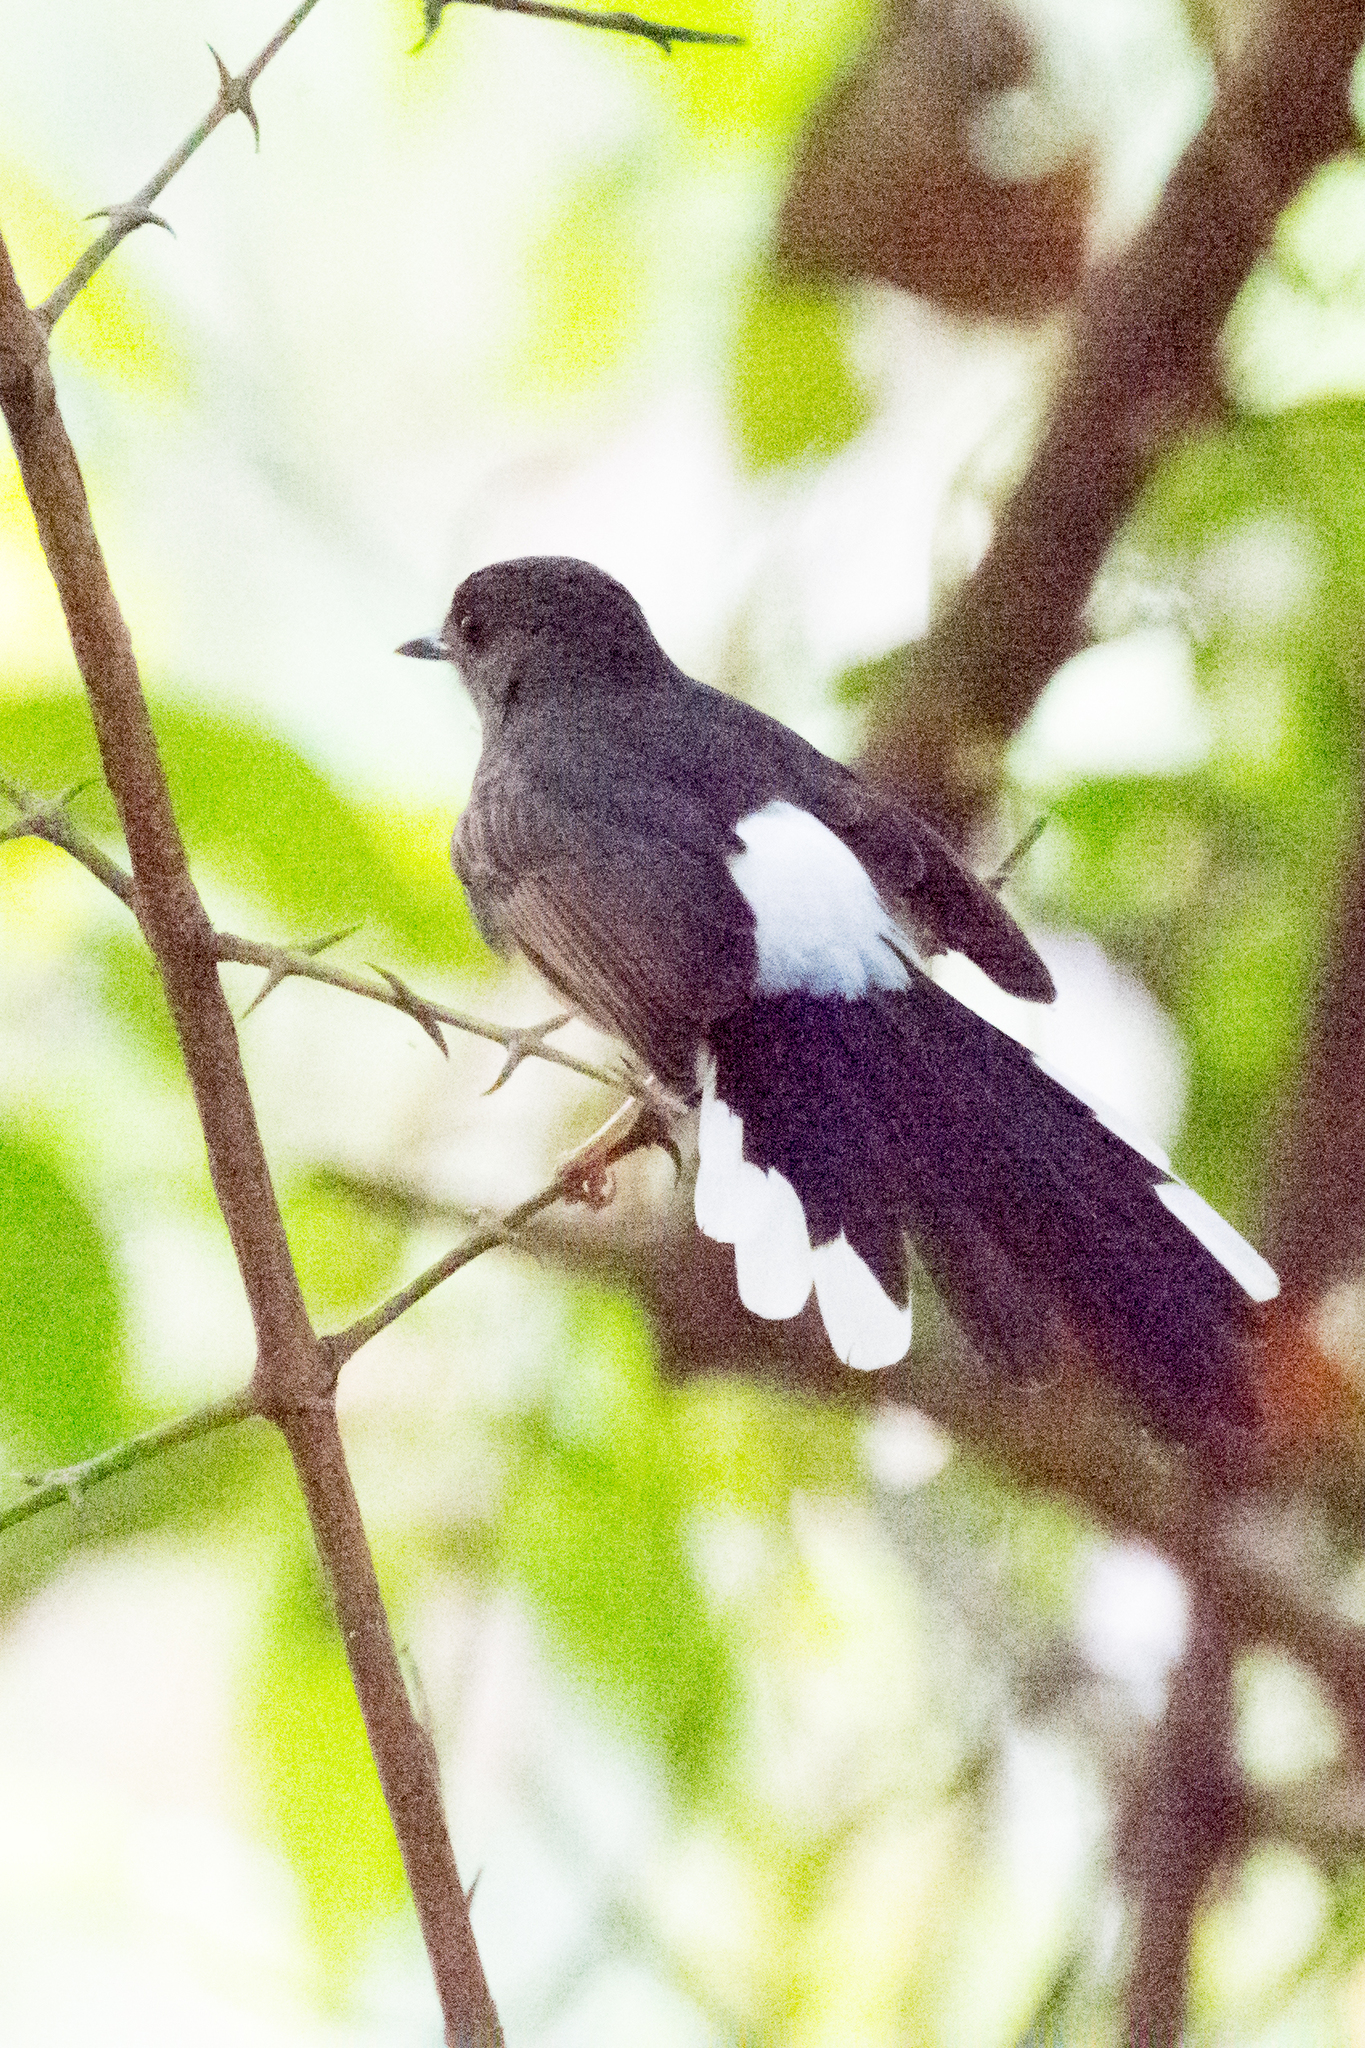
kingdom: Animalia
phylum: Chordata
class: Aves
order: Passeriformes
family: Muscicapidae
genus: Copsychus
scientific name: Copsychus malabaricus
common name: White-rumped shama
